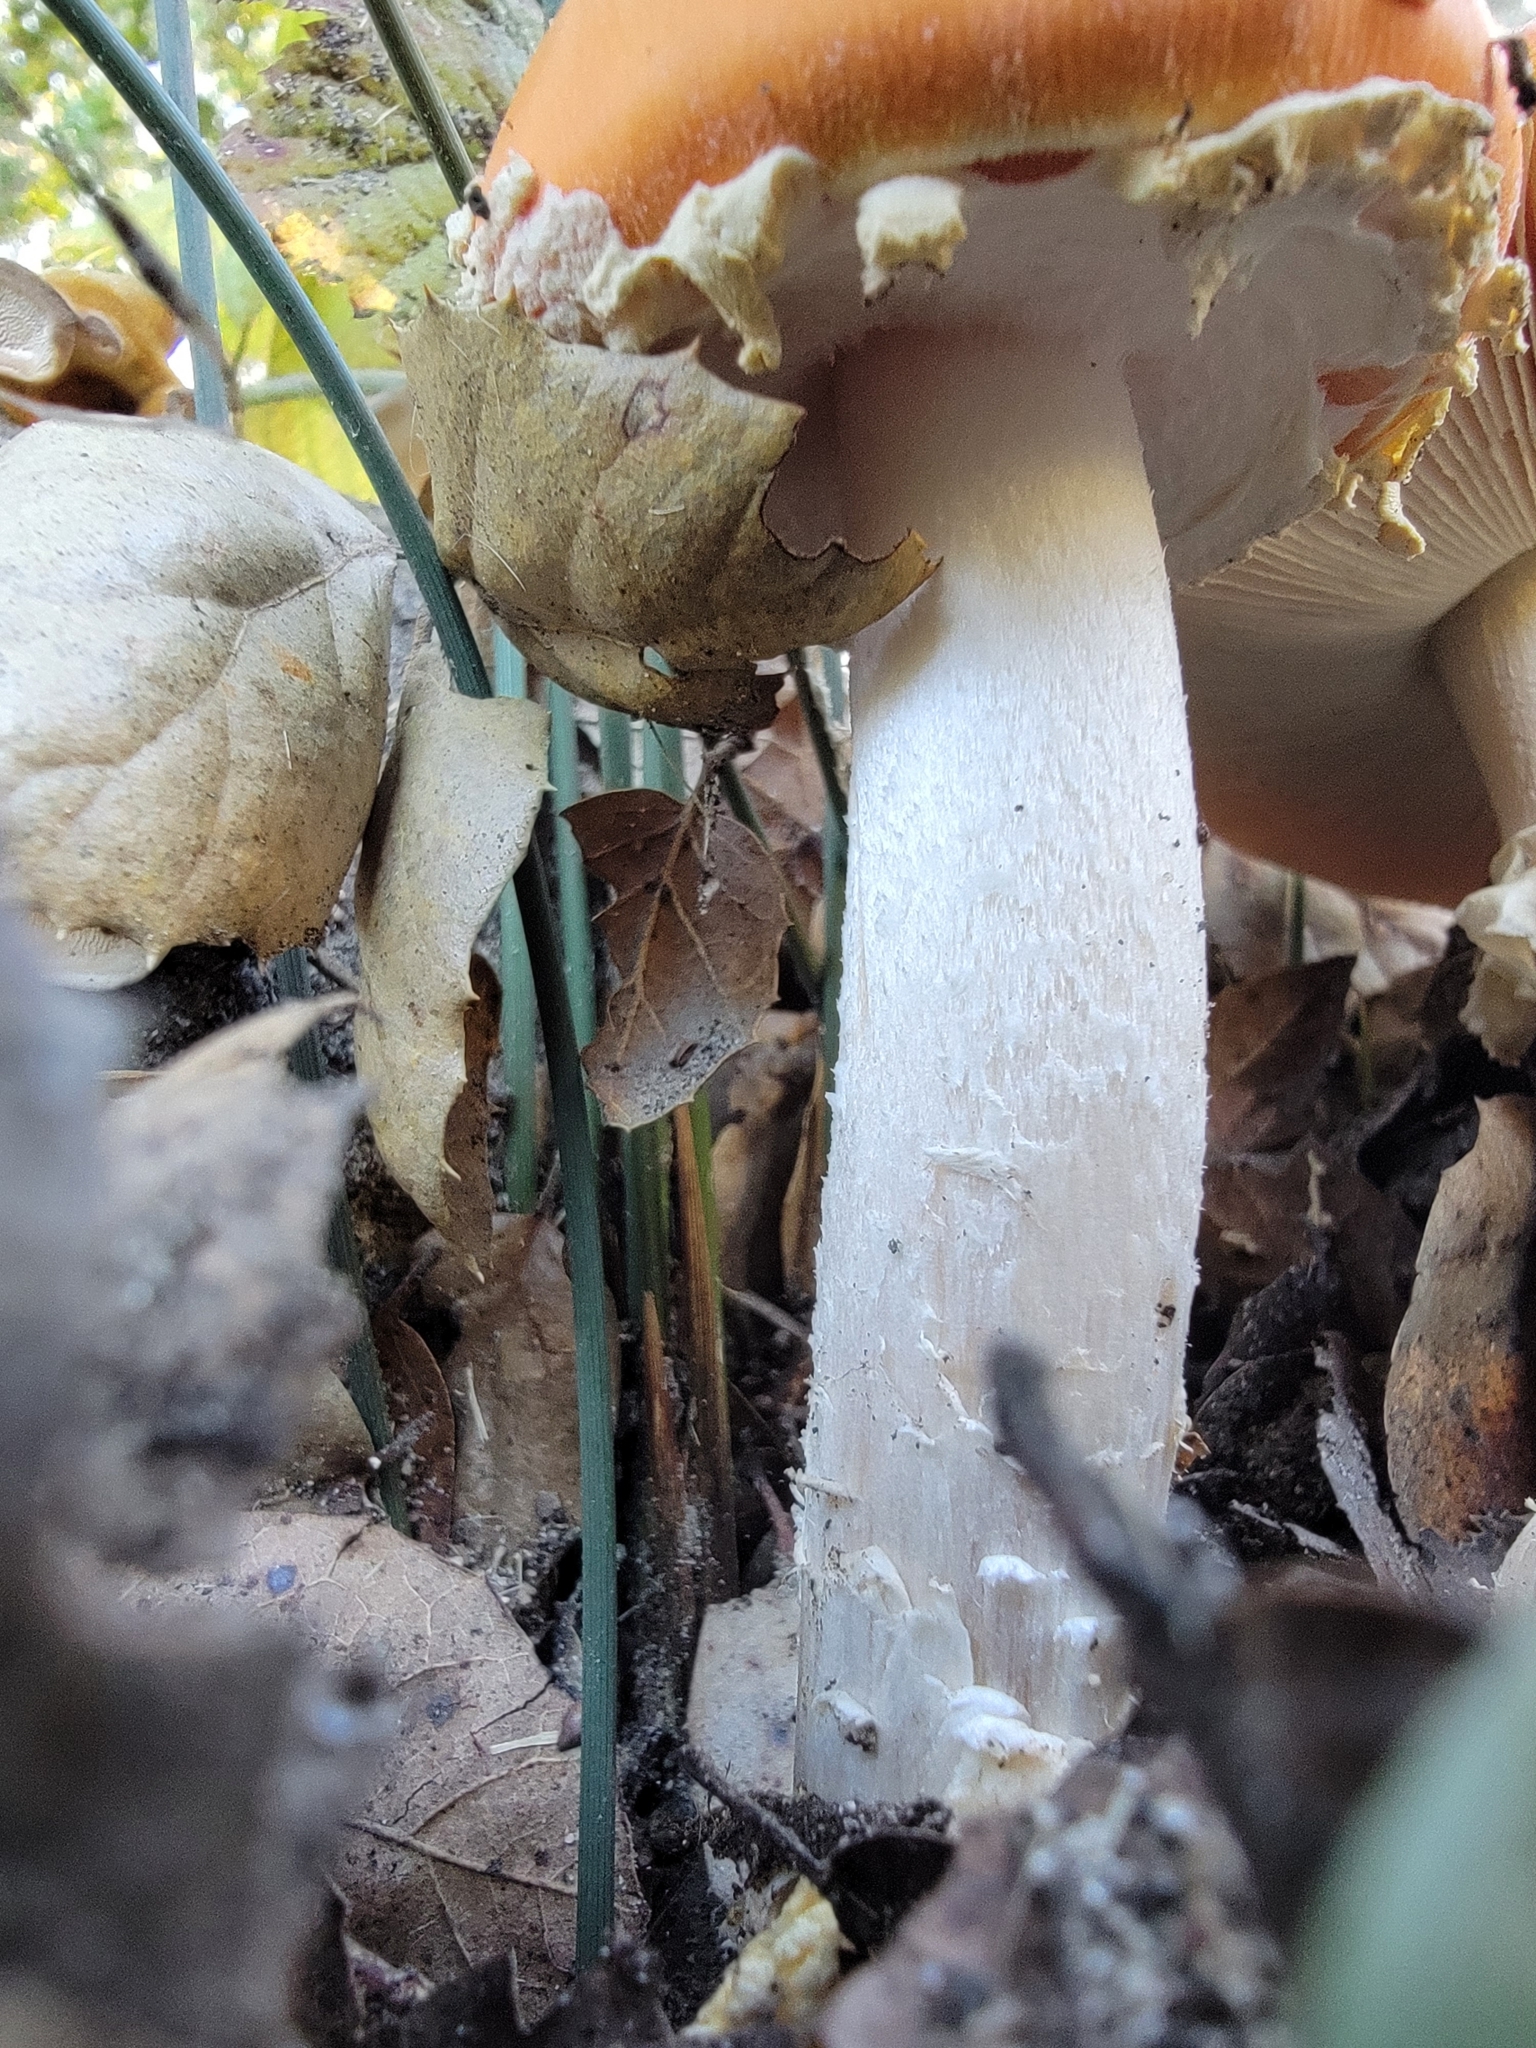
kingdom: Fungi
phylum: Basidiomycota
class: Agaricomycetes
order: Agaricales
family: Amanitaceae
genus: Amanita
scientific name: Amanita muscaria
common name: Fly agaric
